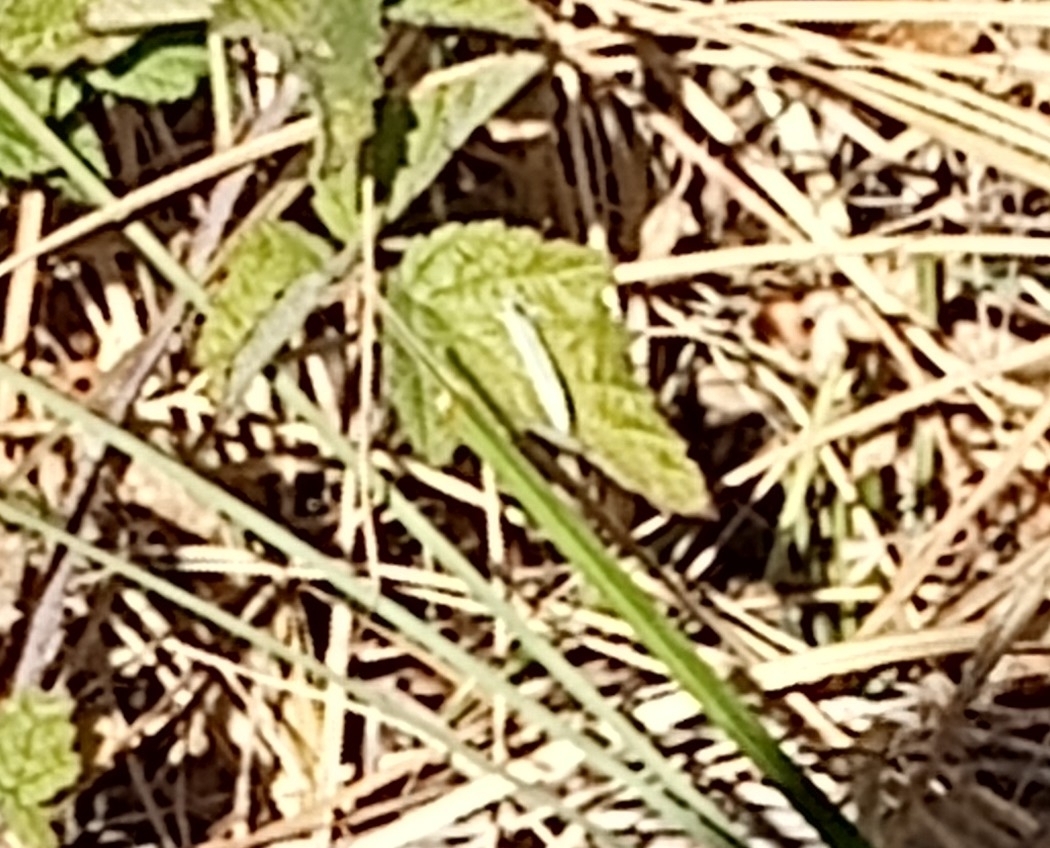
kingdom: Animalia
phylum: Arthropoda
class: Insecta
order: Lepidoptera
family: Pieridae
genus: Pieris
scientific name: Pieris rapae
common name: Small white
